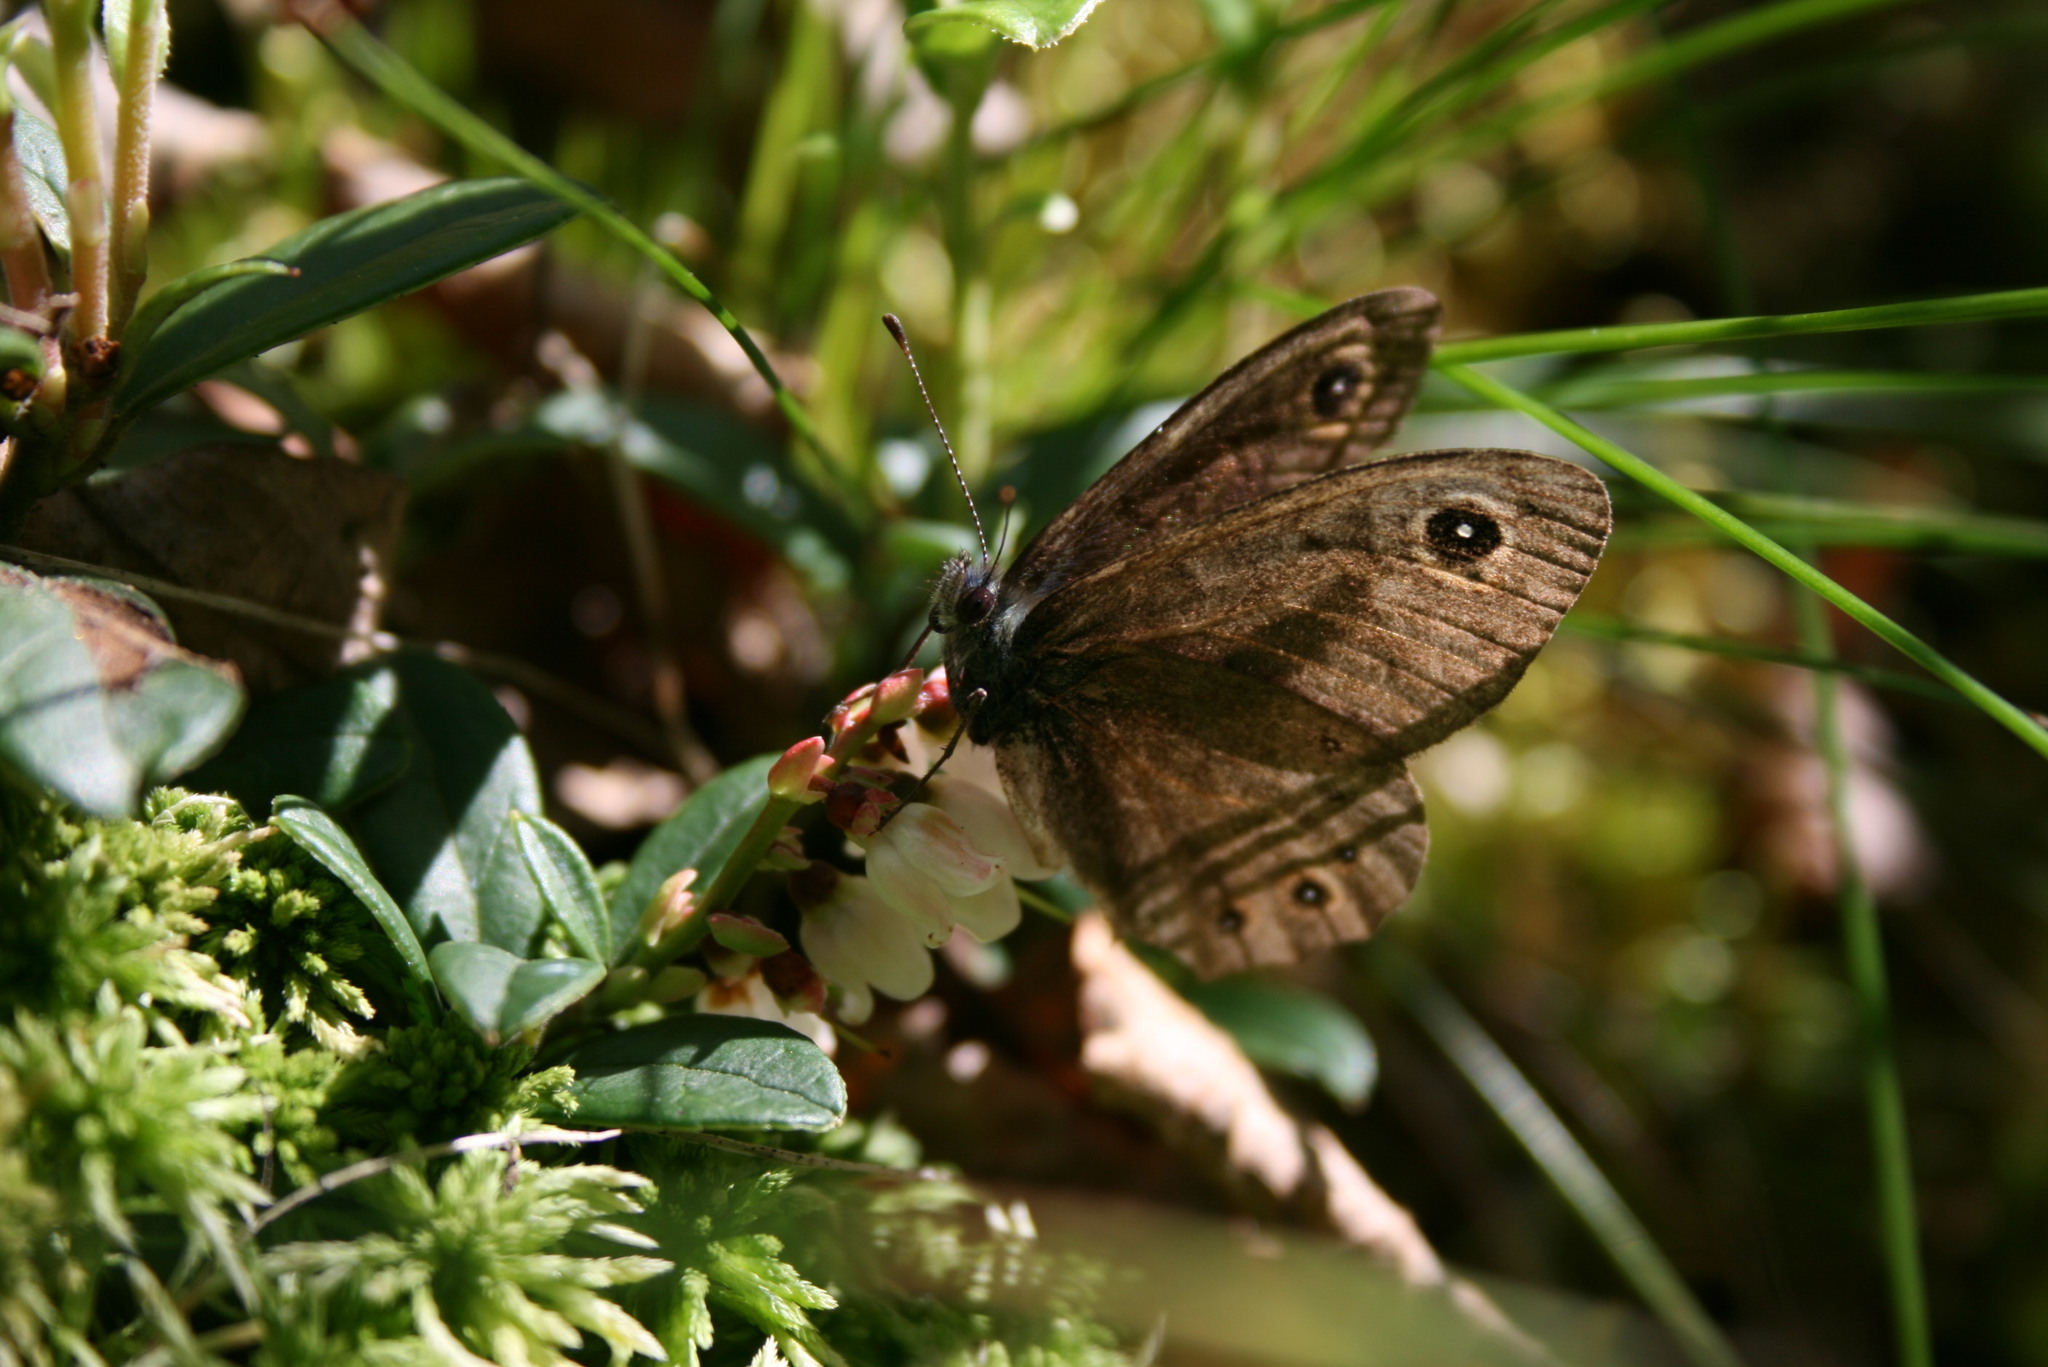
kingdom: Animalia
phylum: Arthropoda
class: Insecta
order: Lepidoptera
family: Nymphalidae
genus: Pararge
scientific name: Pararge Lasiommata maera
